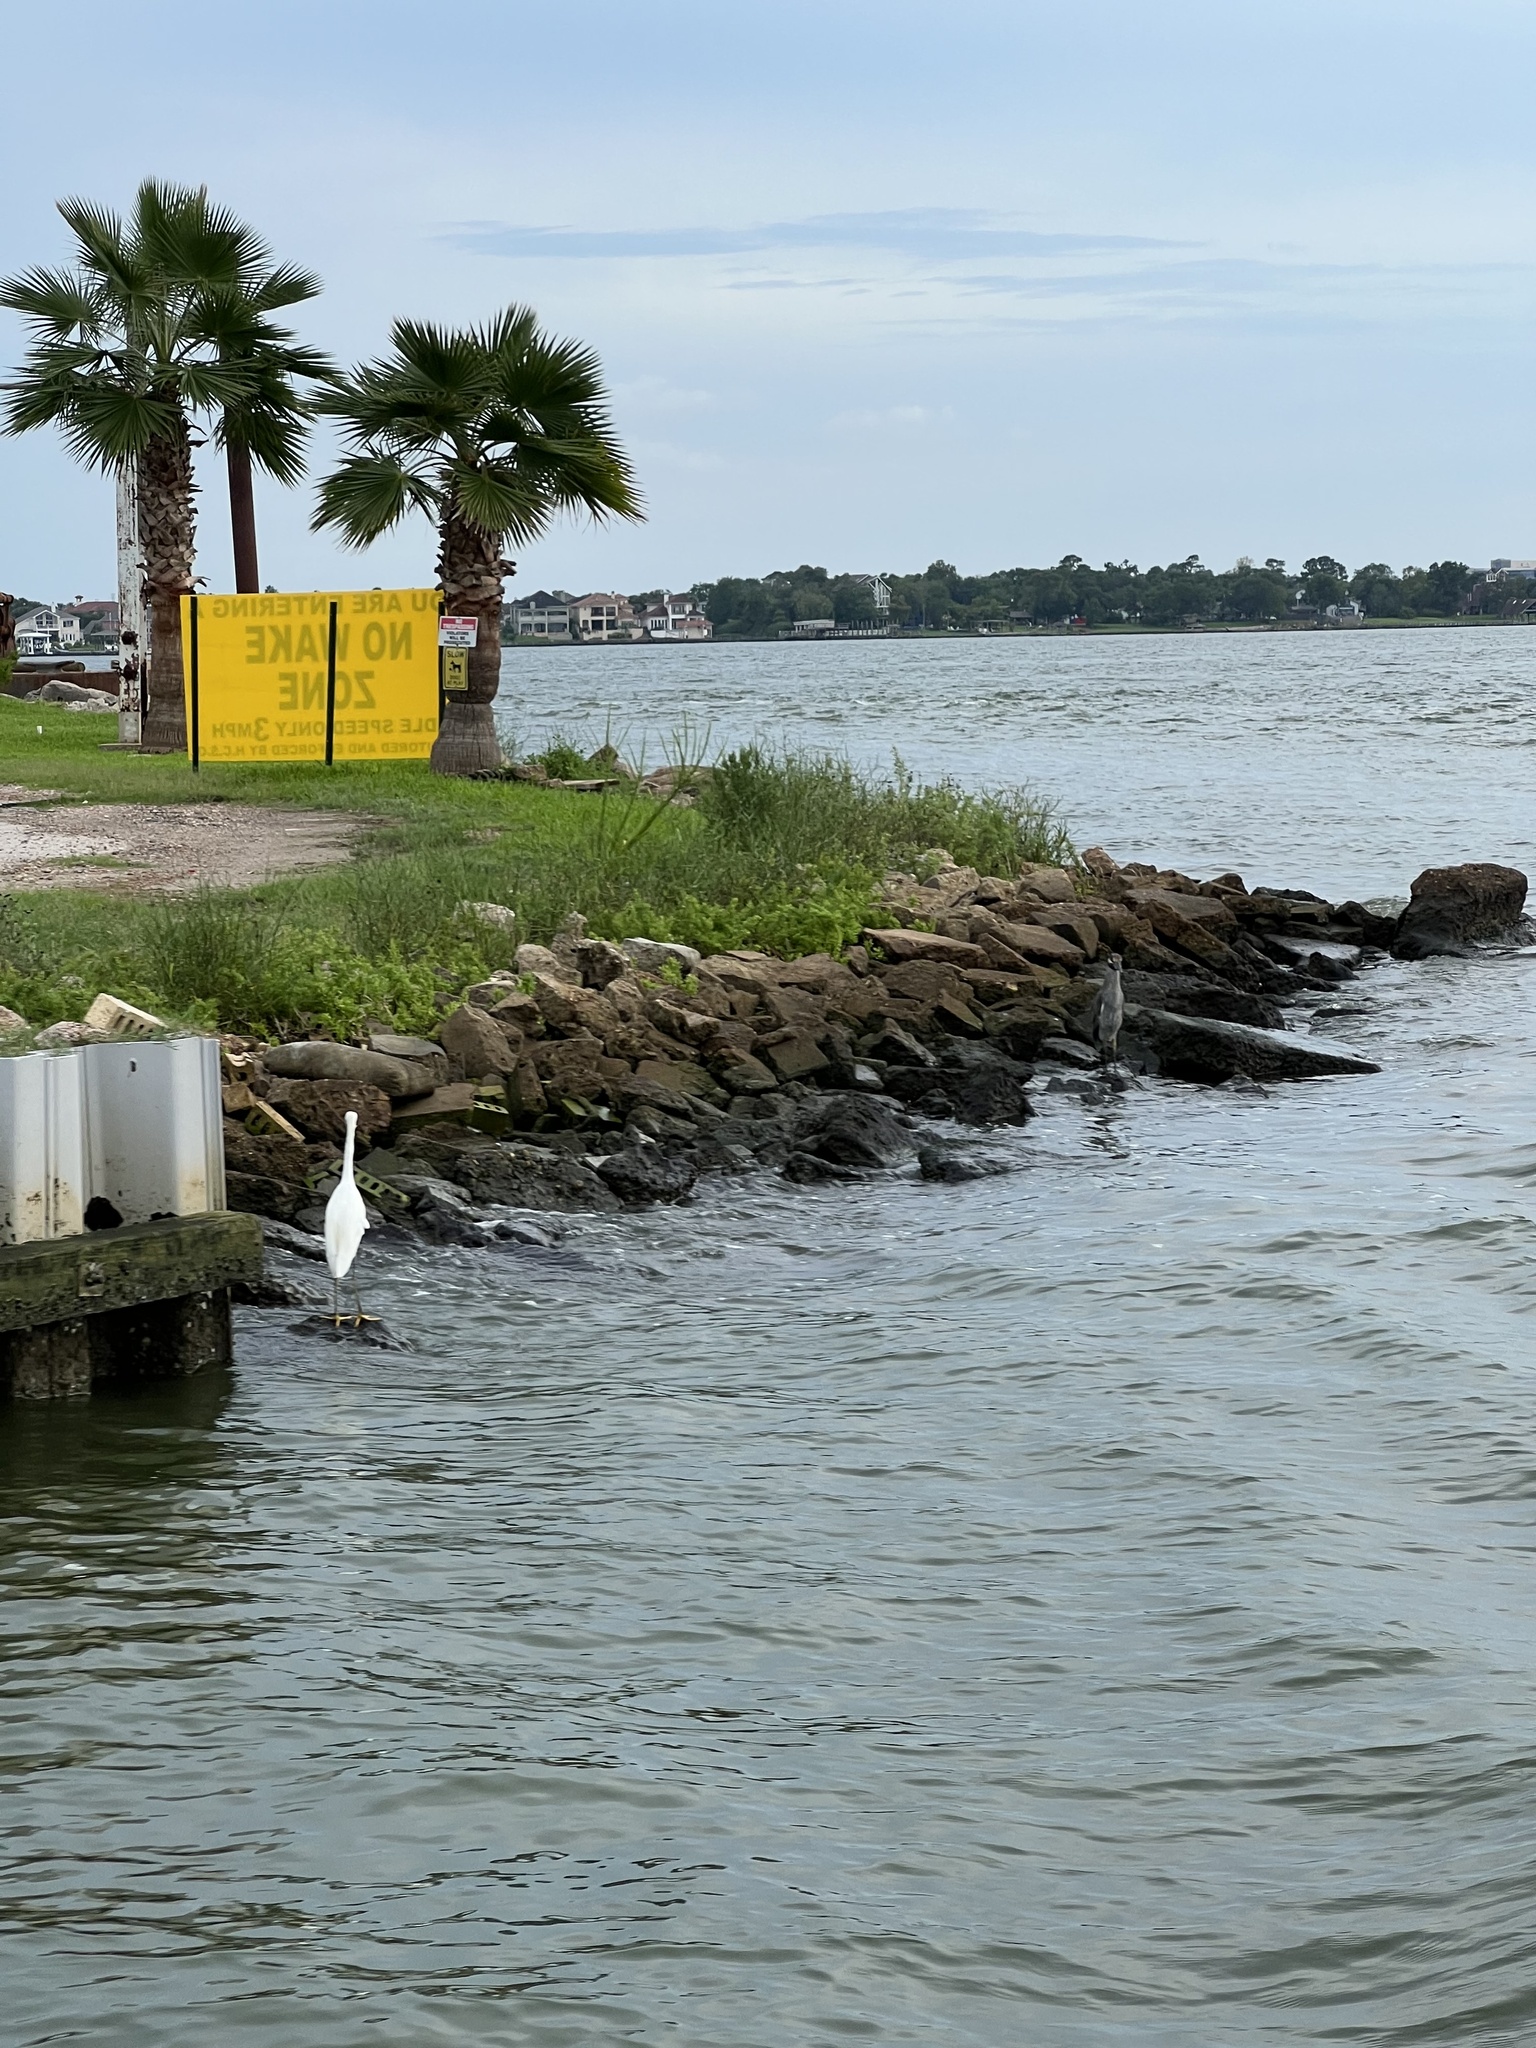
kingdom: Animalia
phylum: Chordata
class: Aves
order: Pelecaniformes
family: Ardeidae
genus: Egretta
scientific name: Egretta thula
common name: Snowy egret
